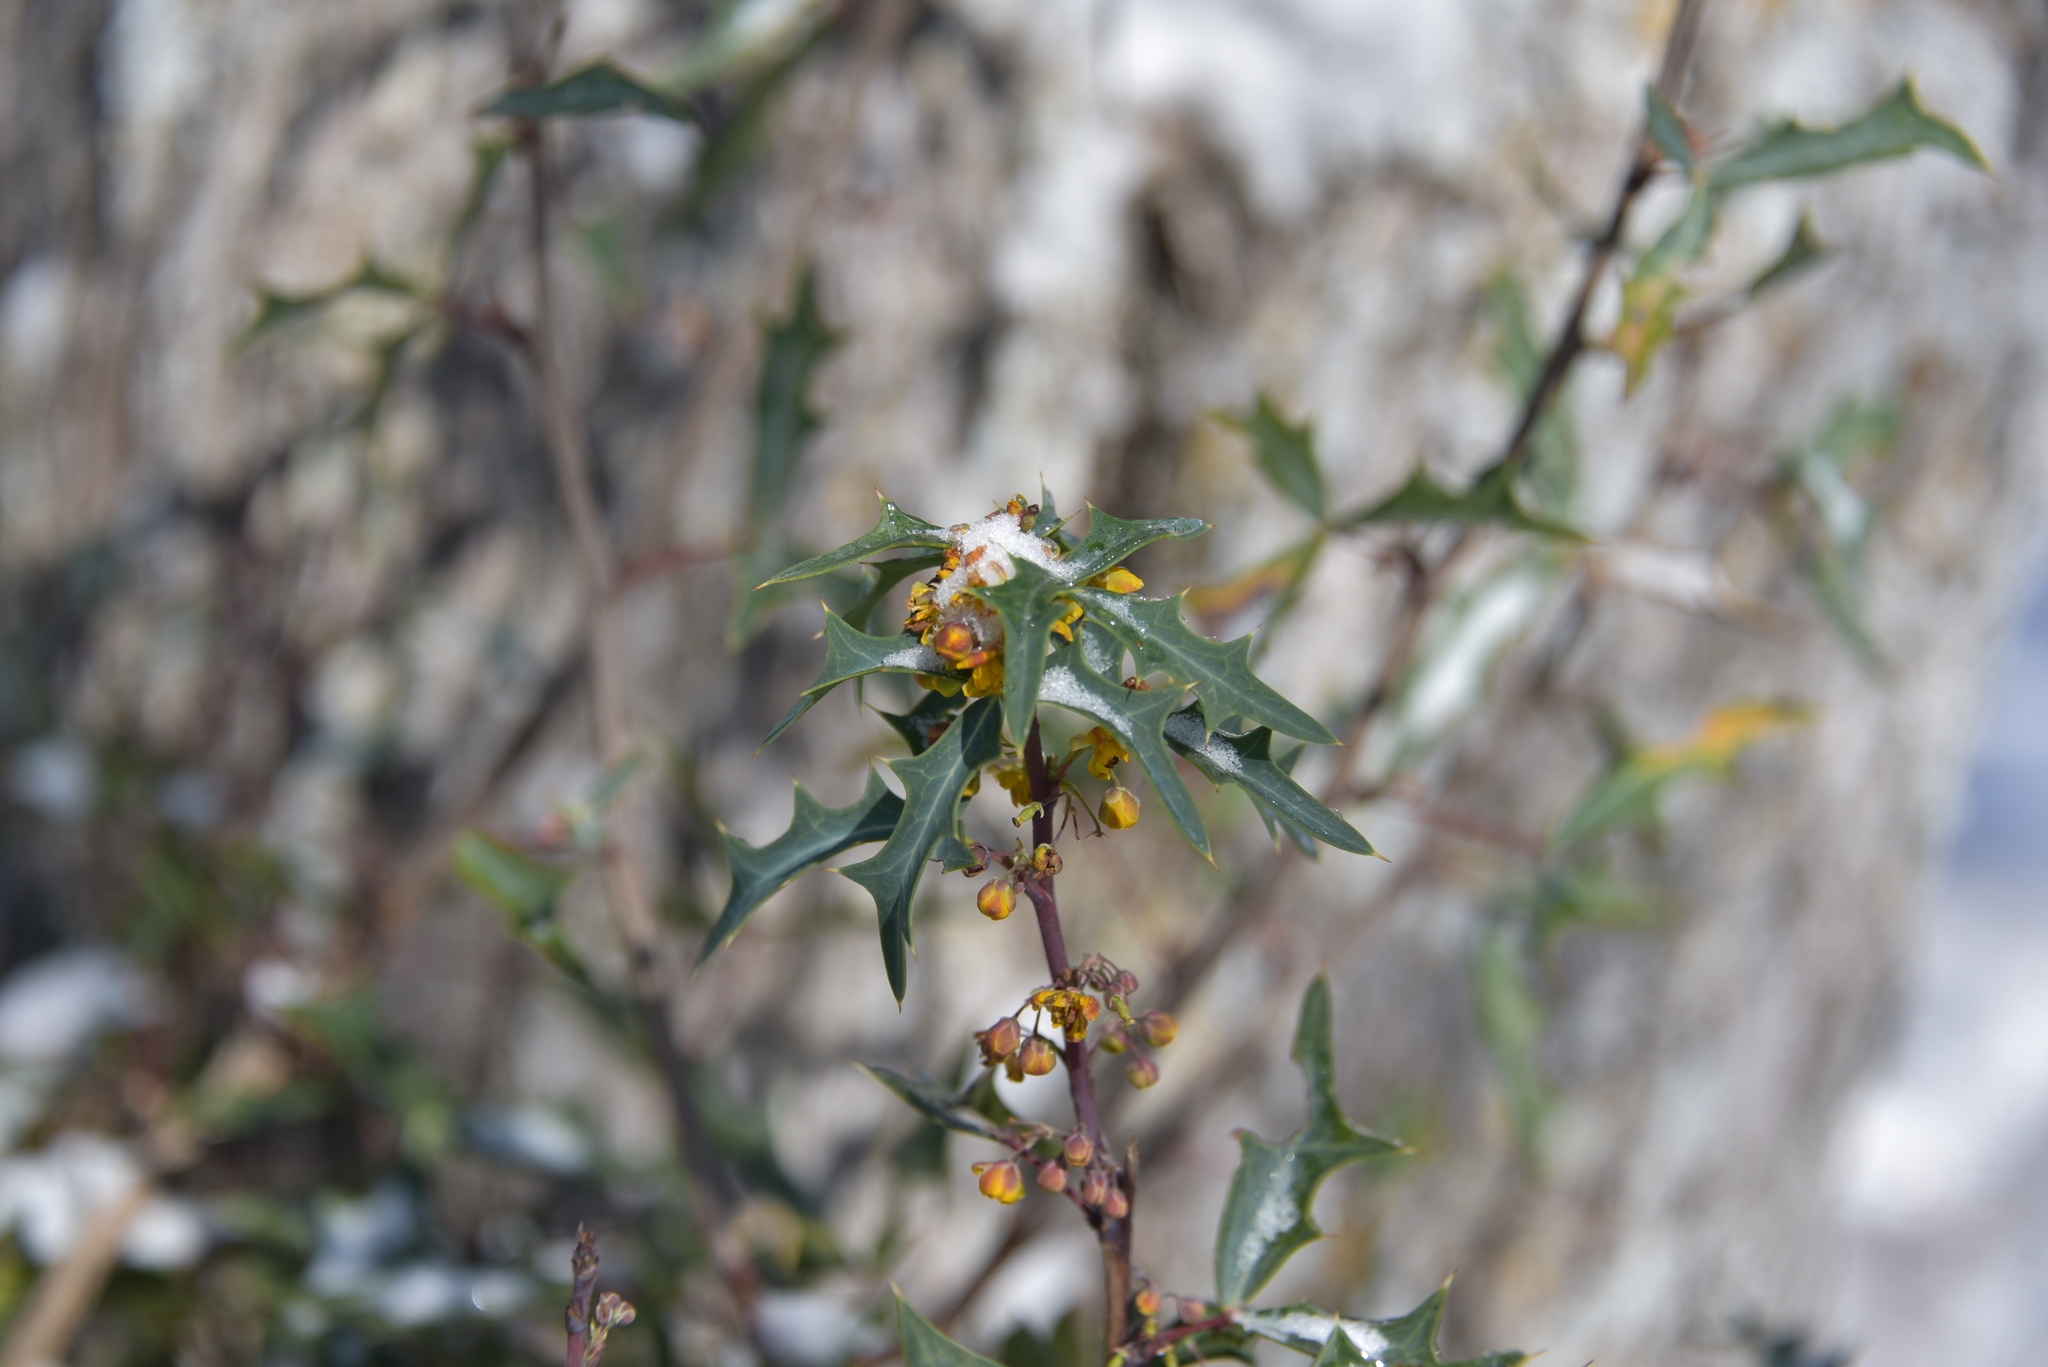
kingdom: Plantae
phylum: Tracheophyta
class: Magnoliopsida
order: Ranunculales
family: Berberidaceae
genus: Alloberberis
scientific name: Alloberberis trifoliolata
